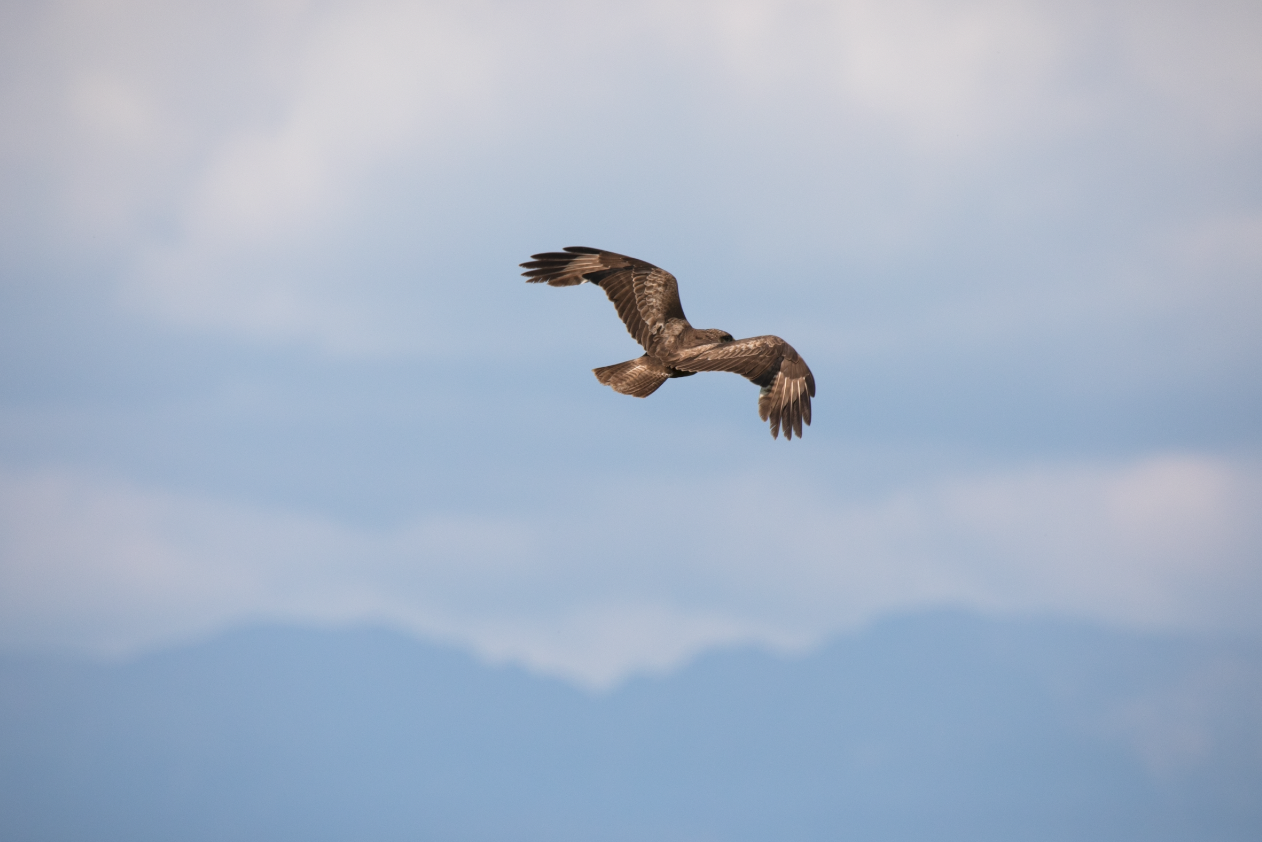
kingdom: Animalia
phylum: Chordata
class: Aves
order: Accipitriformes
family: Accipitridae
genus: Buteo
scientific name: Buteo buteo
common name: Common buzzard
